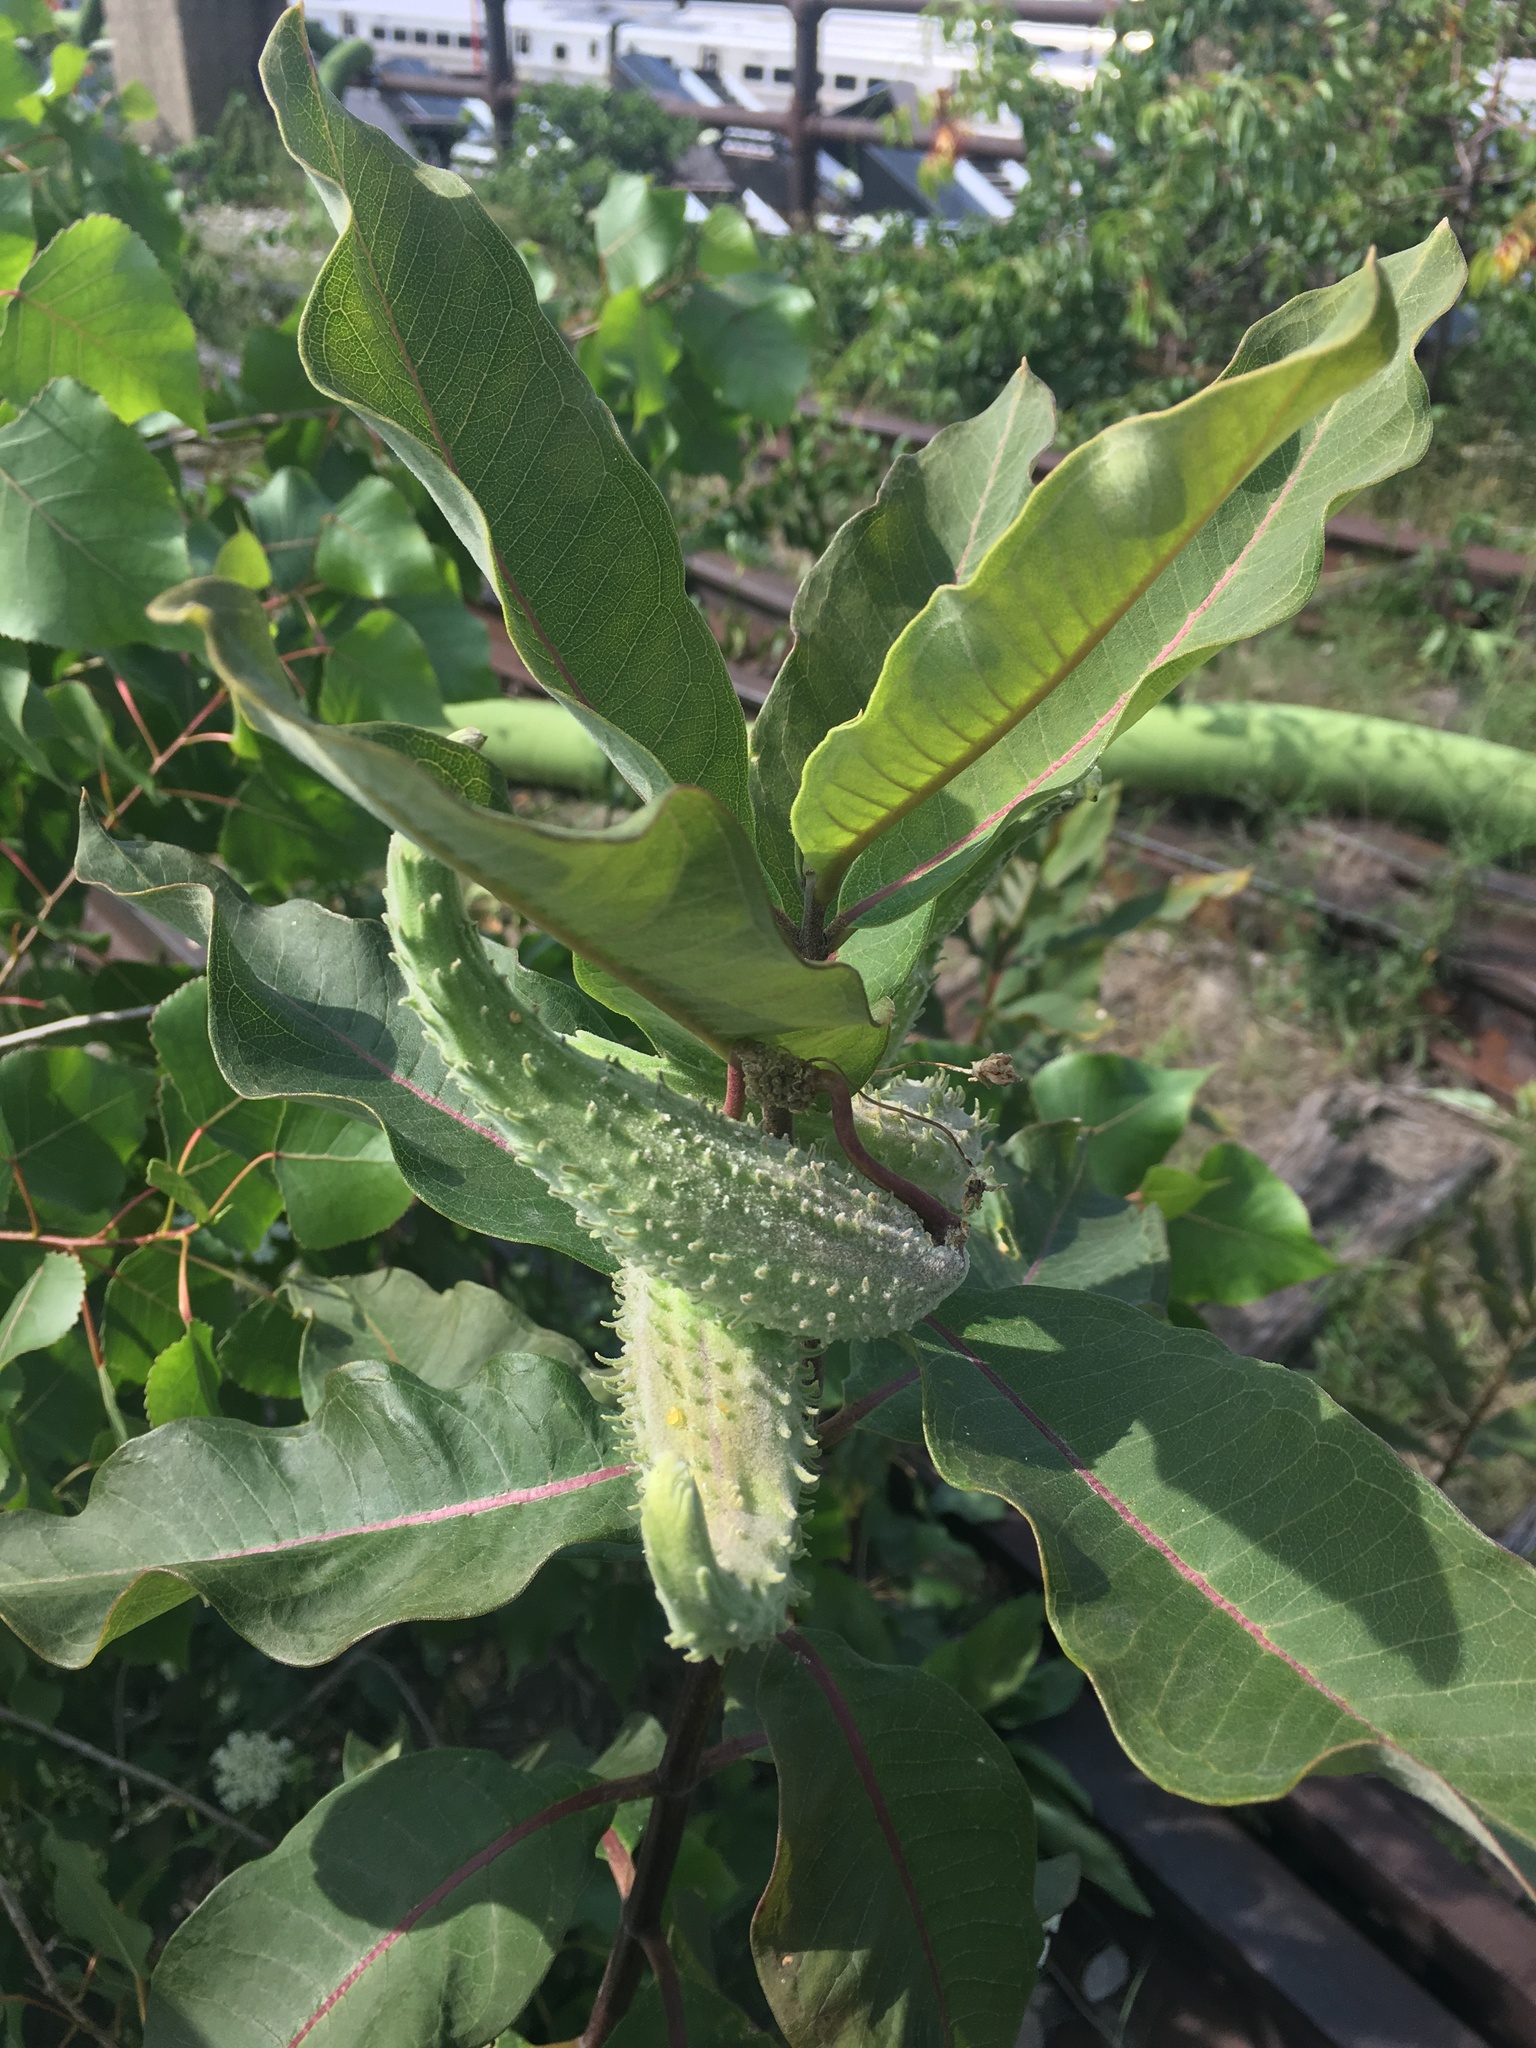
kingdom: Plantae
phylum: Tracheophyta
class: Magnoliopsida
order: Gentianales
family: Apocynaceae
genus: Asclepias
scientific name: Asclepias syriaca
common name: Common milkweed
